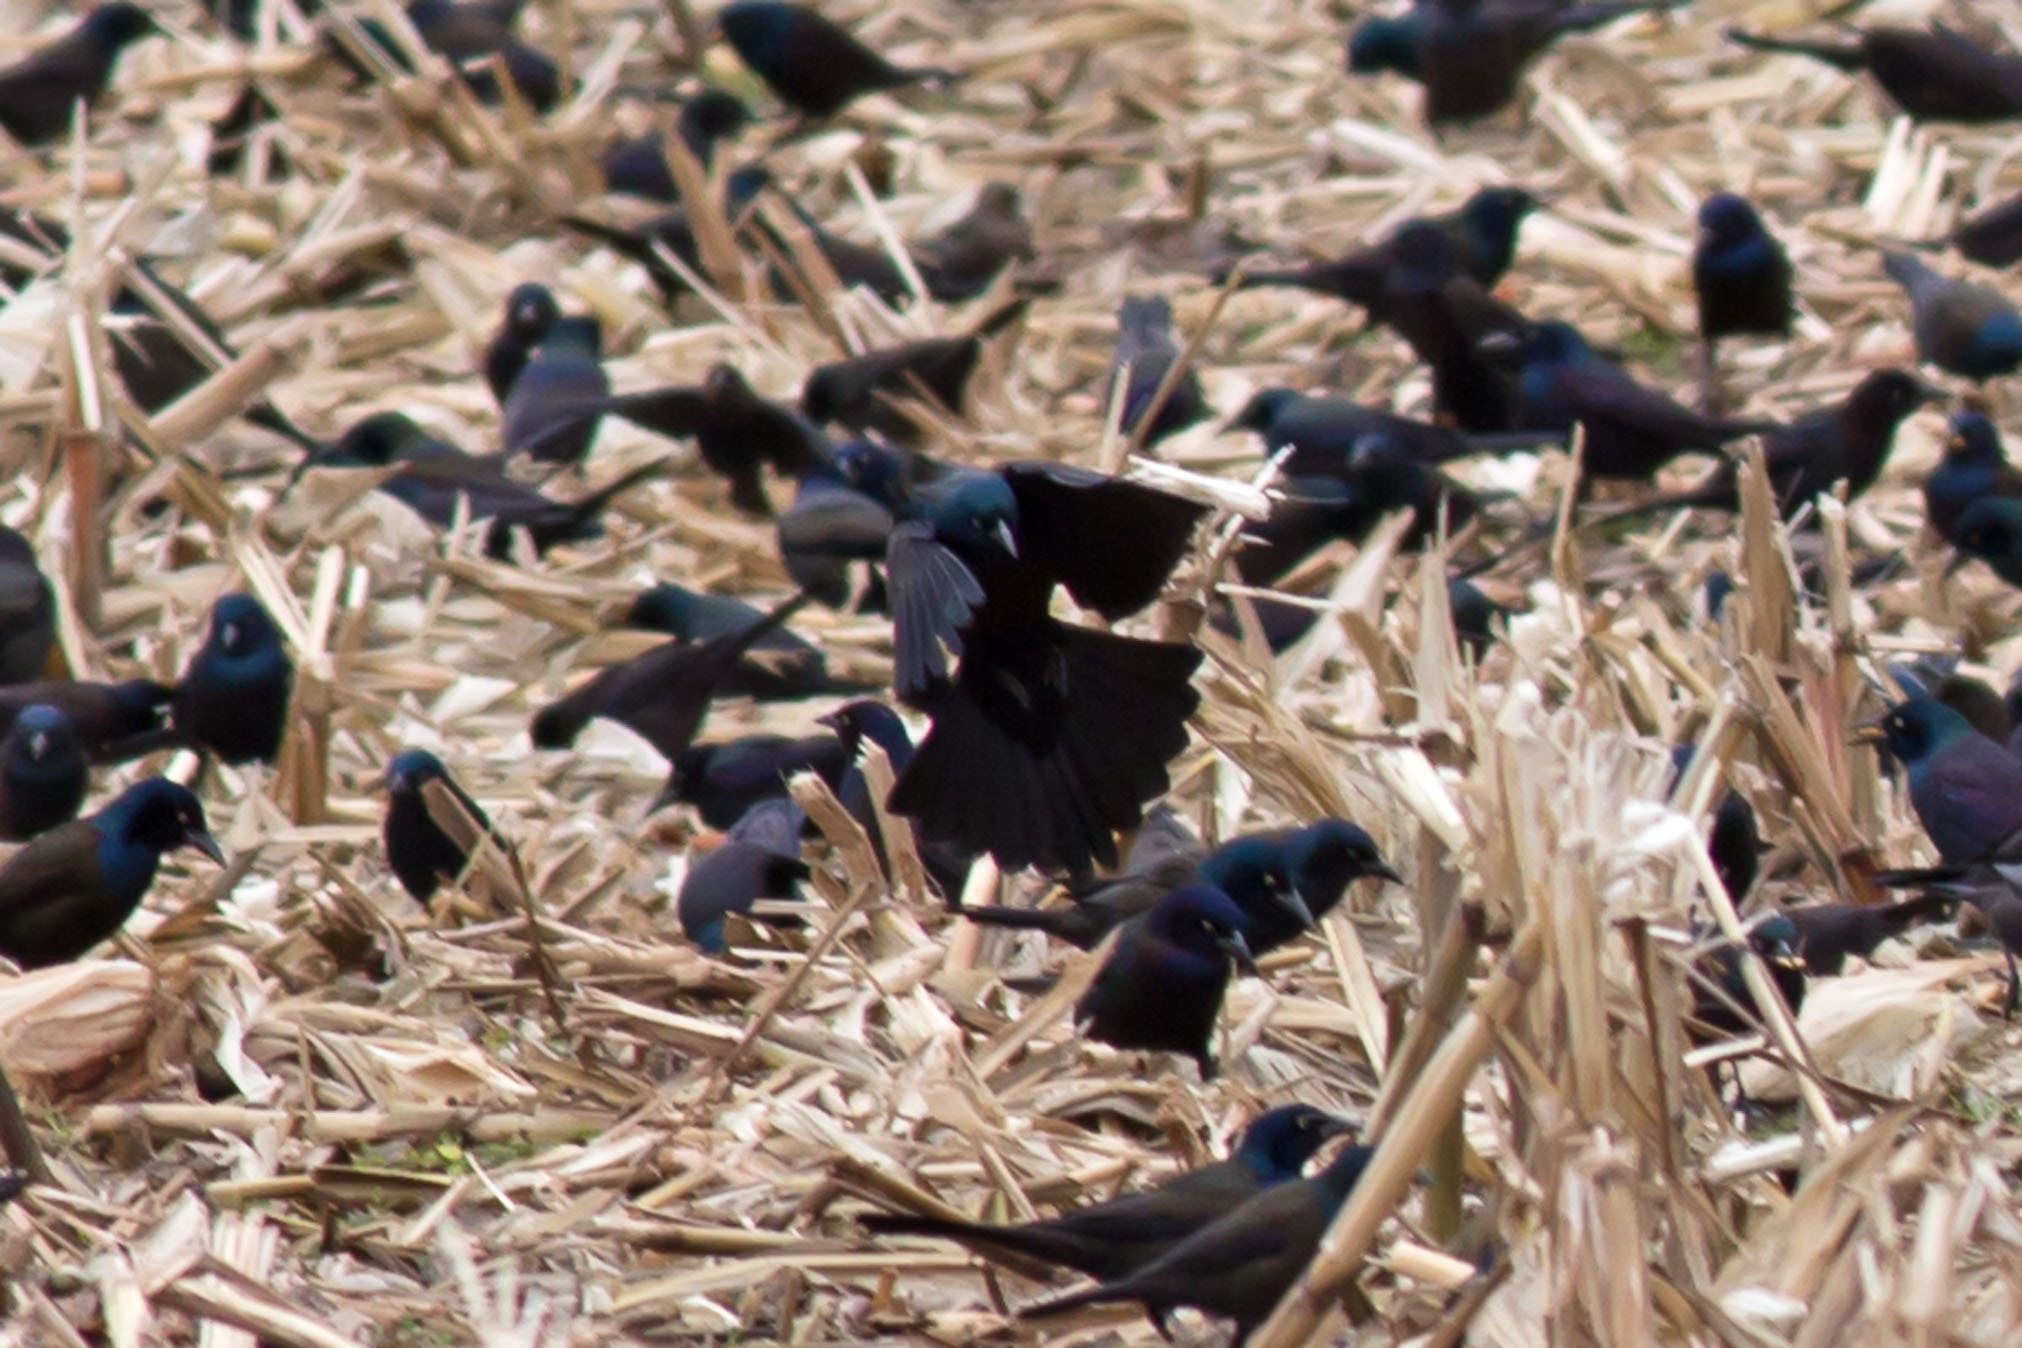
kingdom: Animalia
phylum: Chordata
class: Aves
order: Passeriformes
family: Icteridae
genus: Quiscalus
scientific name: Quiscalus quiscula
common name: Common grackle
